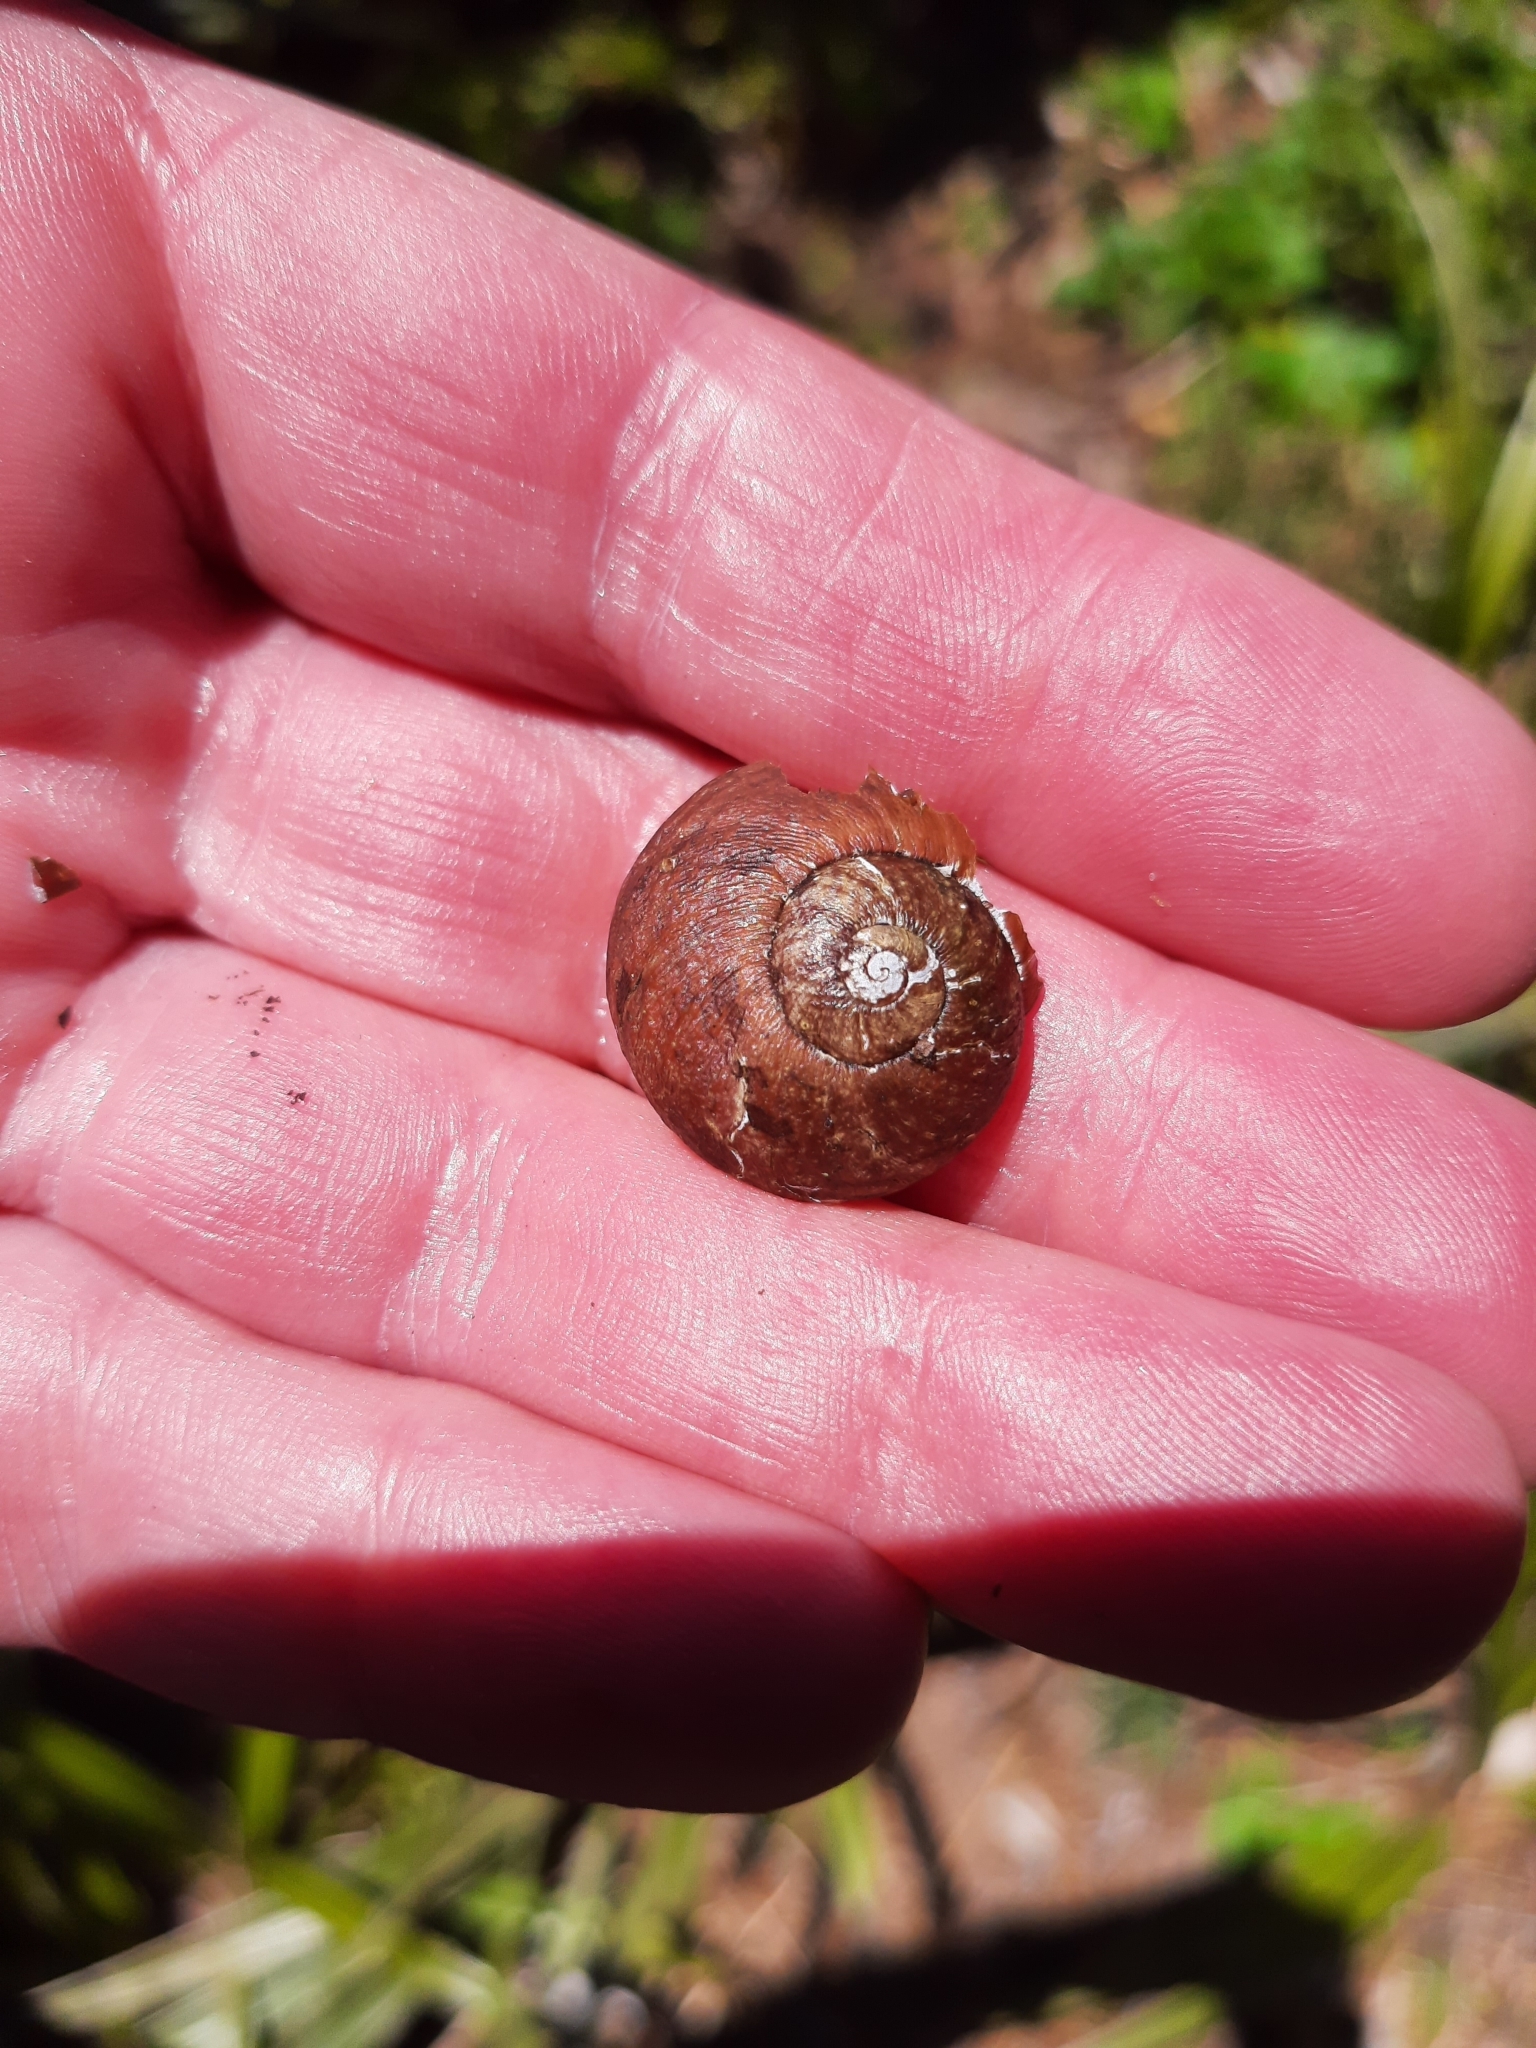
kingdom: Animalia
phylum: Mollusca
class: Gastropoda
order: Stylommatophora
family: Rhytididae
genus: Rhytida
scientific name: Rhytida greenwoodi
